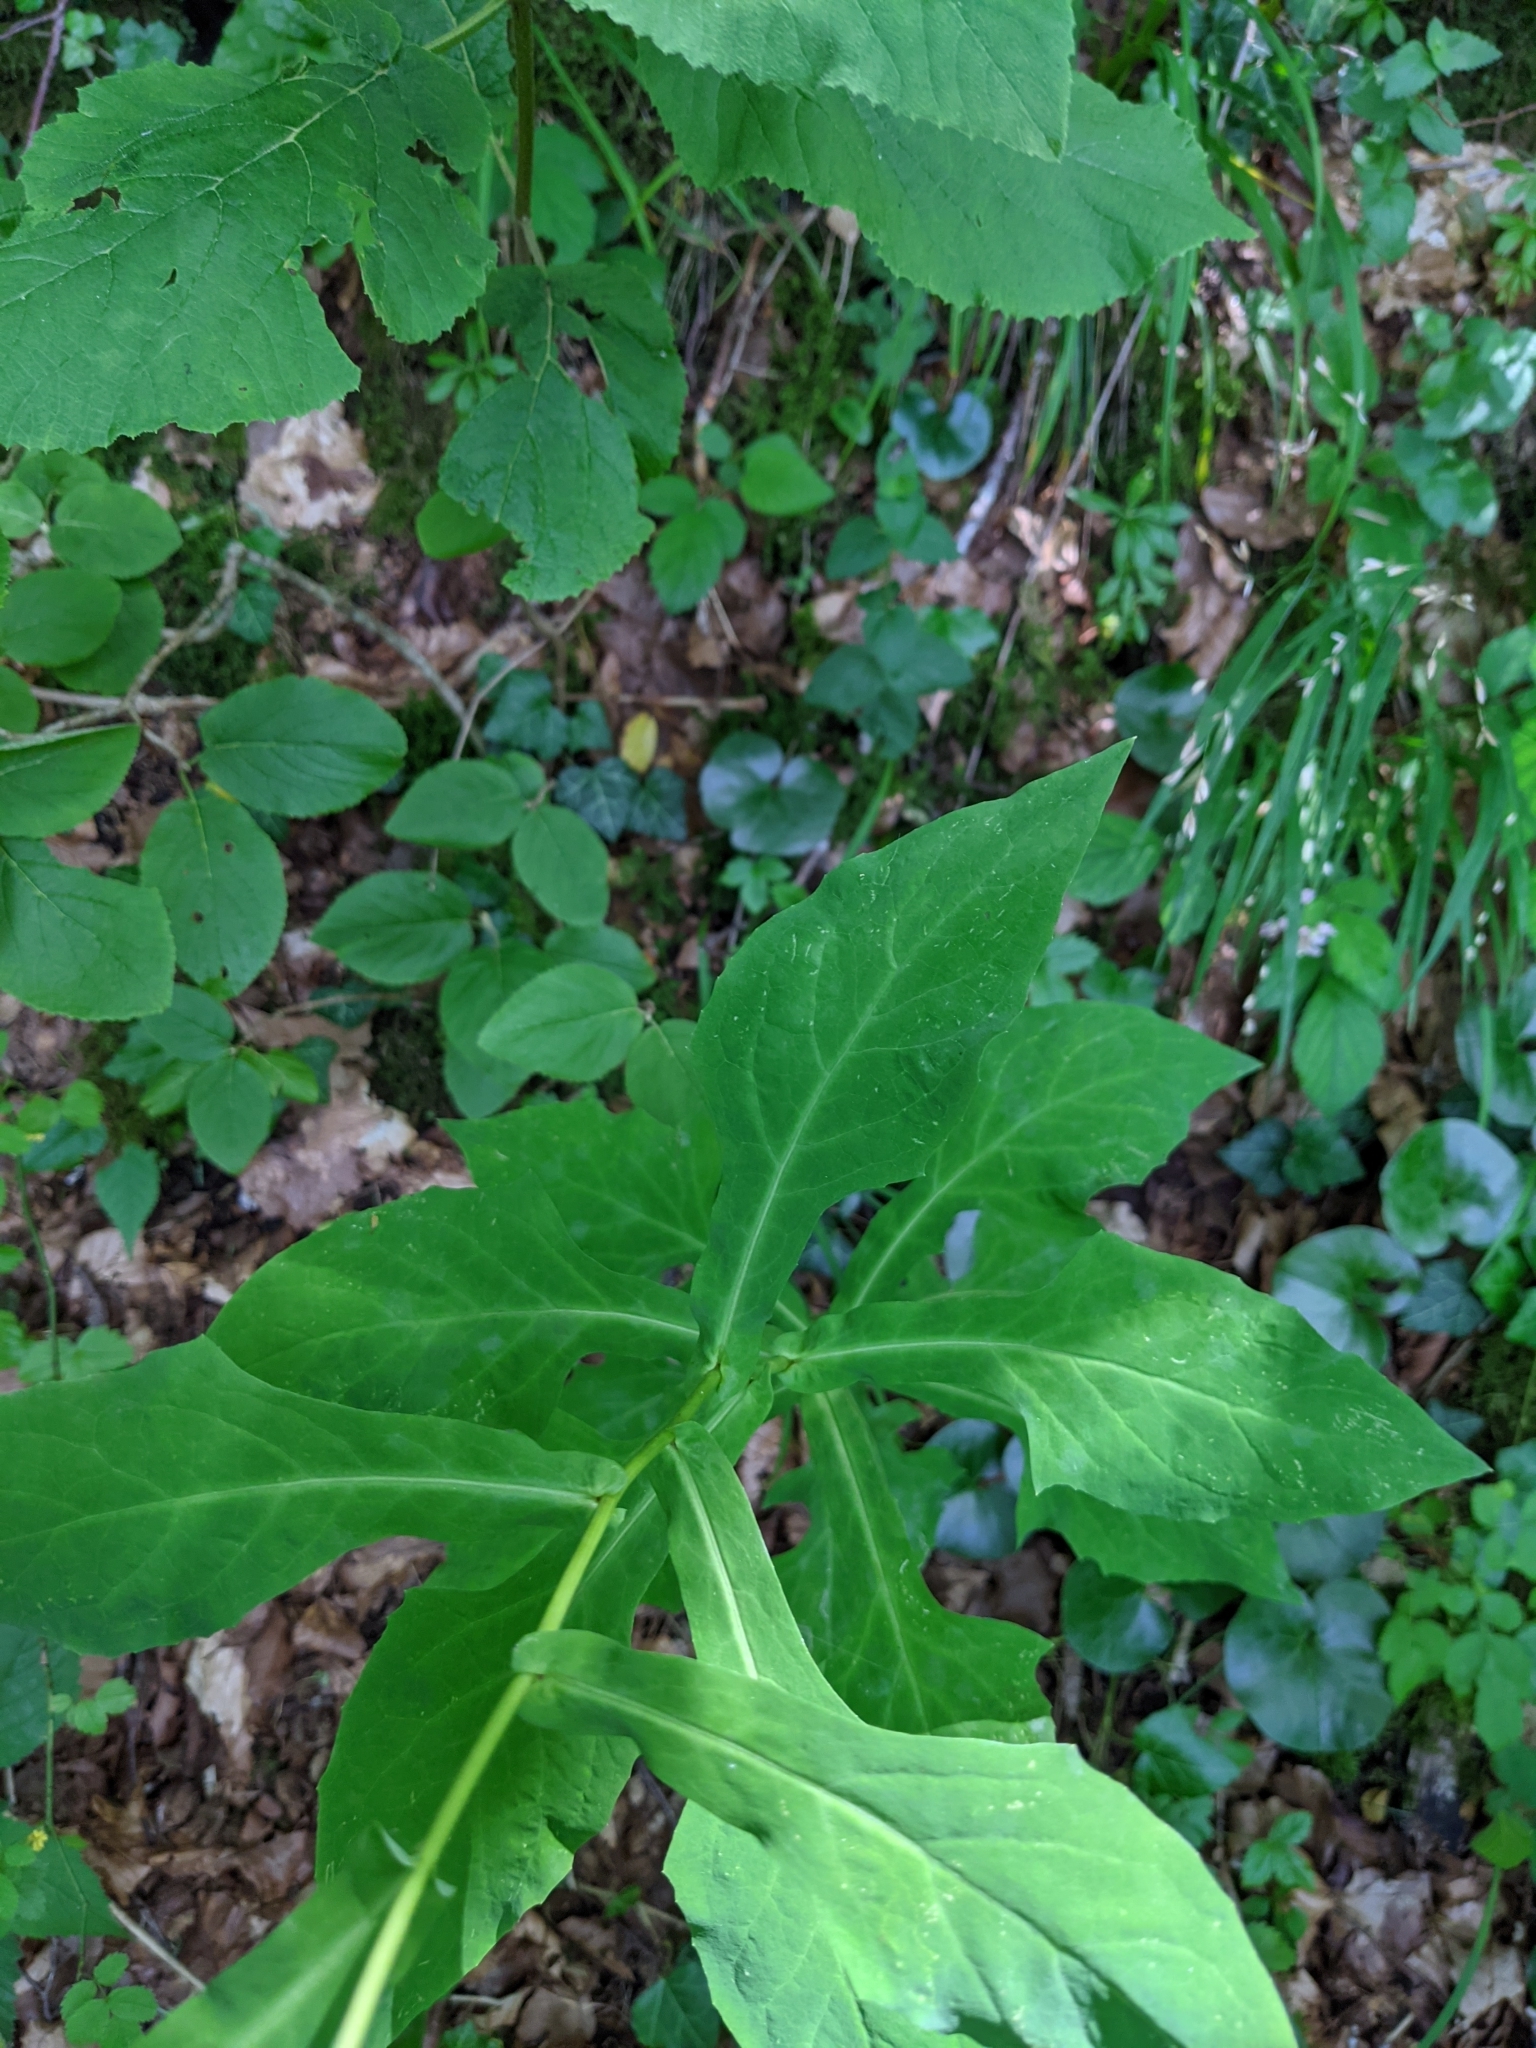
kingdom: Plantae
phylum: Tracheophyta
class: Magnoliopsida
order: Asterales
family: Asteraceae
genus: Prenanthes
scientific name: Prenanthes purpurea
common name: Purple lettuce
